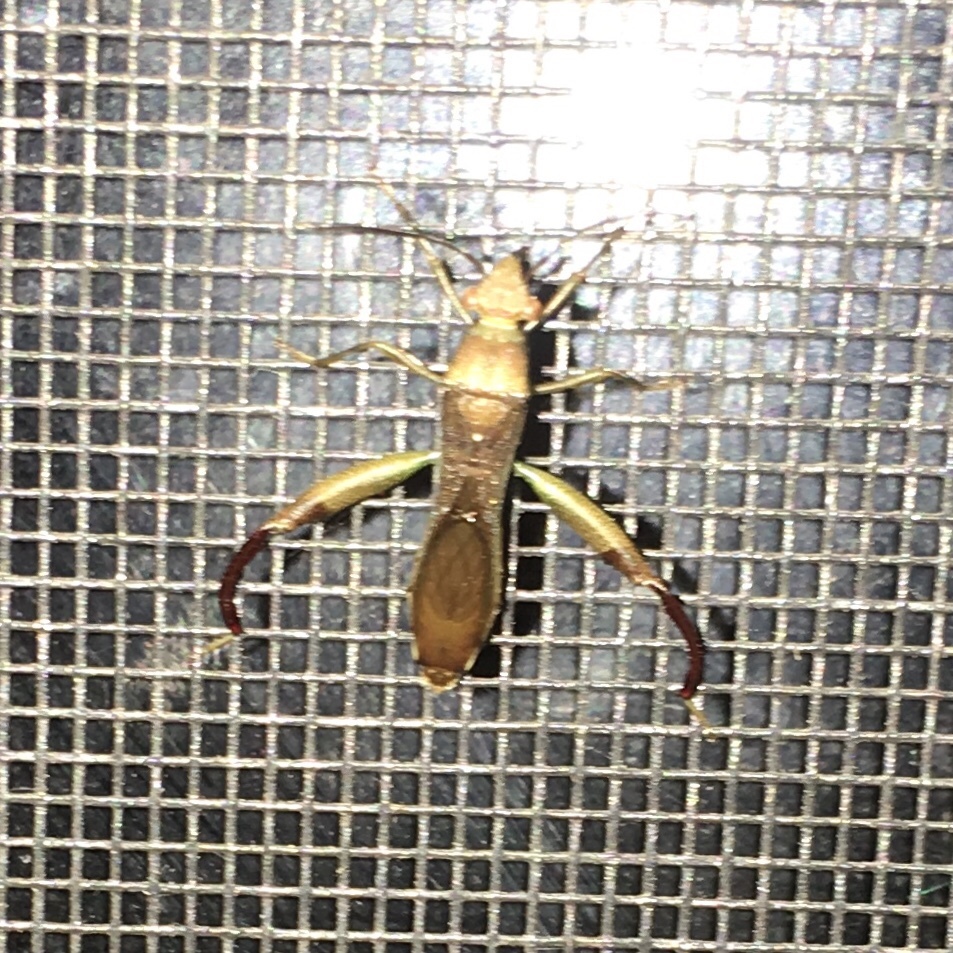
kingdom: Animalia
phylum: Arthropoda
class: Insecta
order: Hemiptera
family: Alydidae
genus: Hyalymenus
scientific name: Hyalymenus tarsatus
